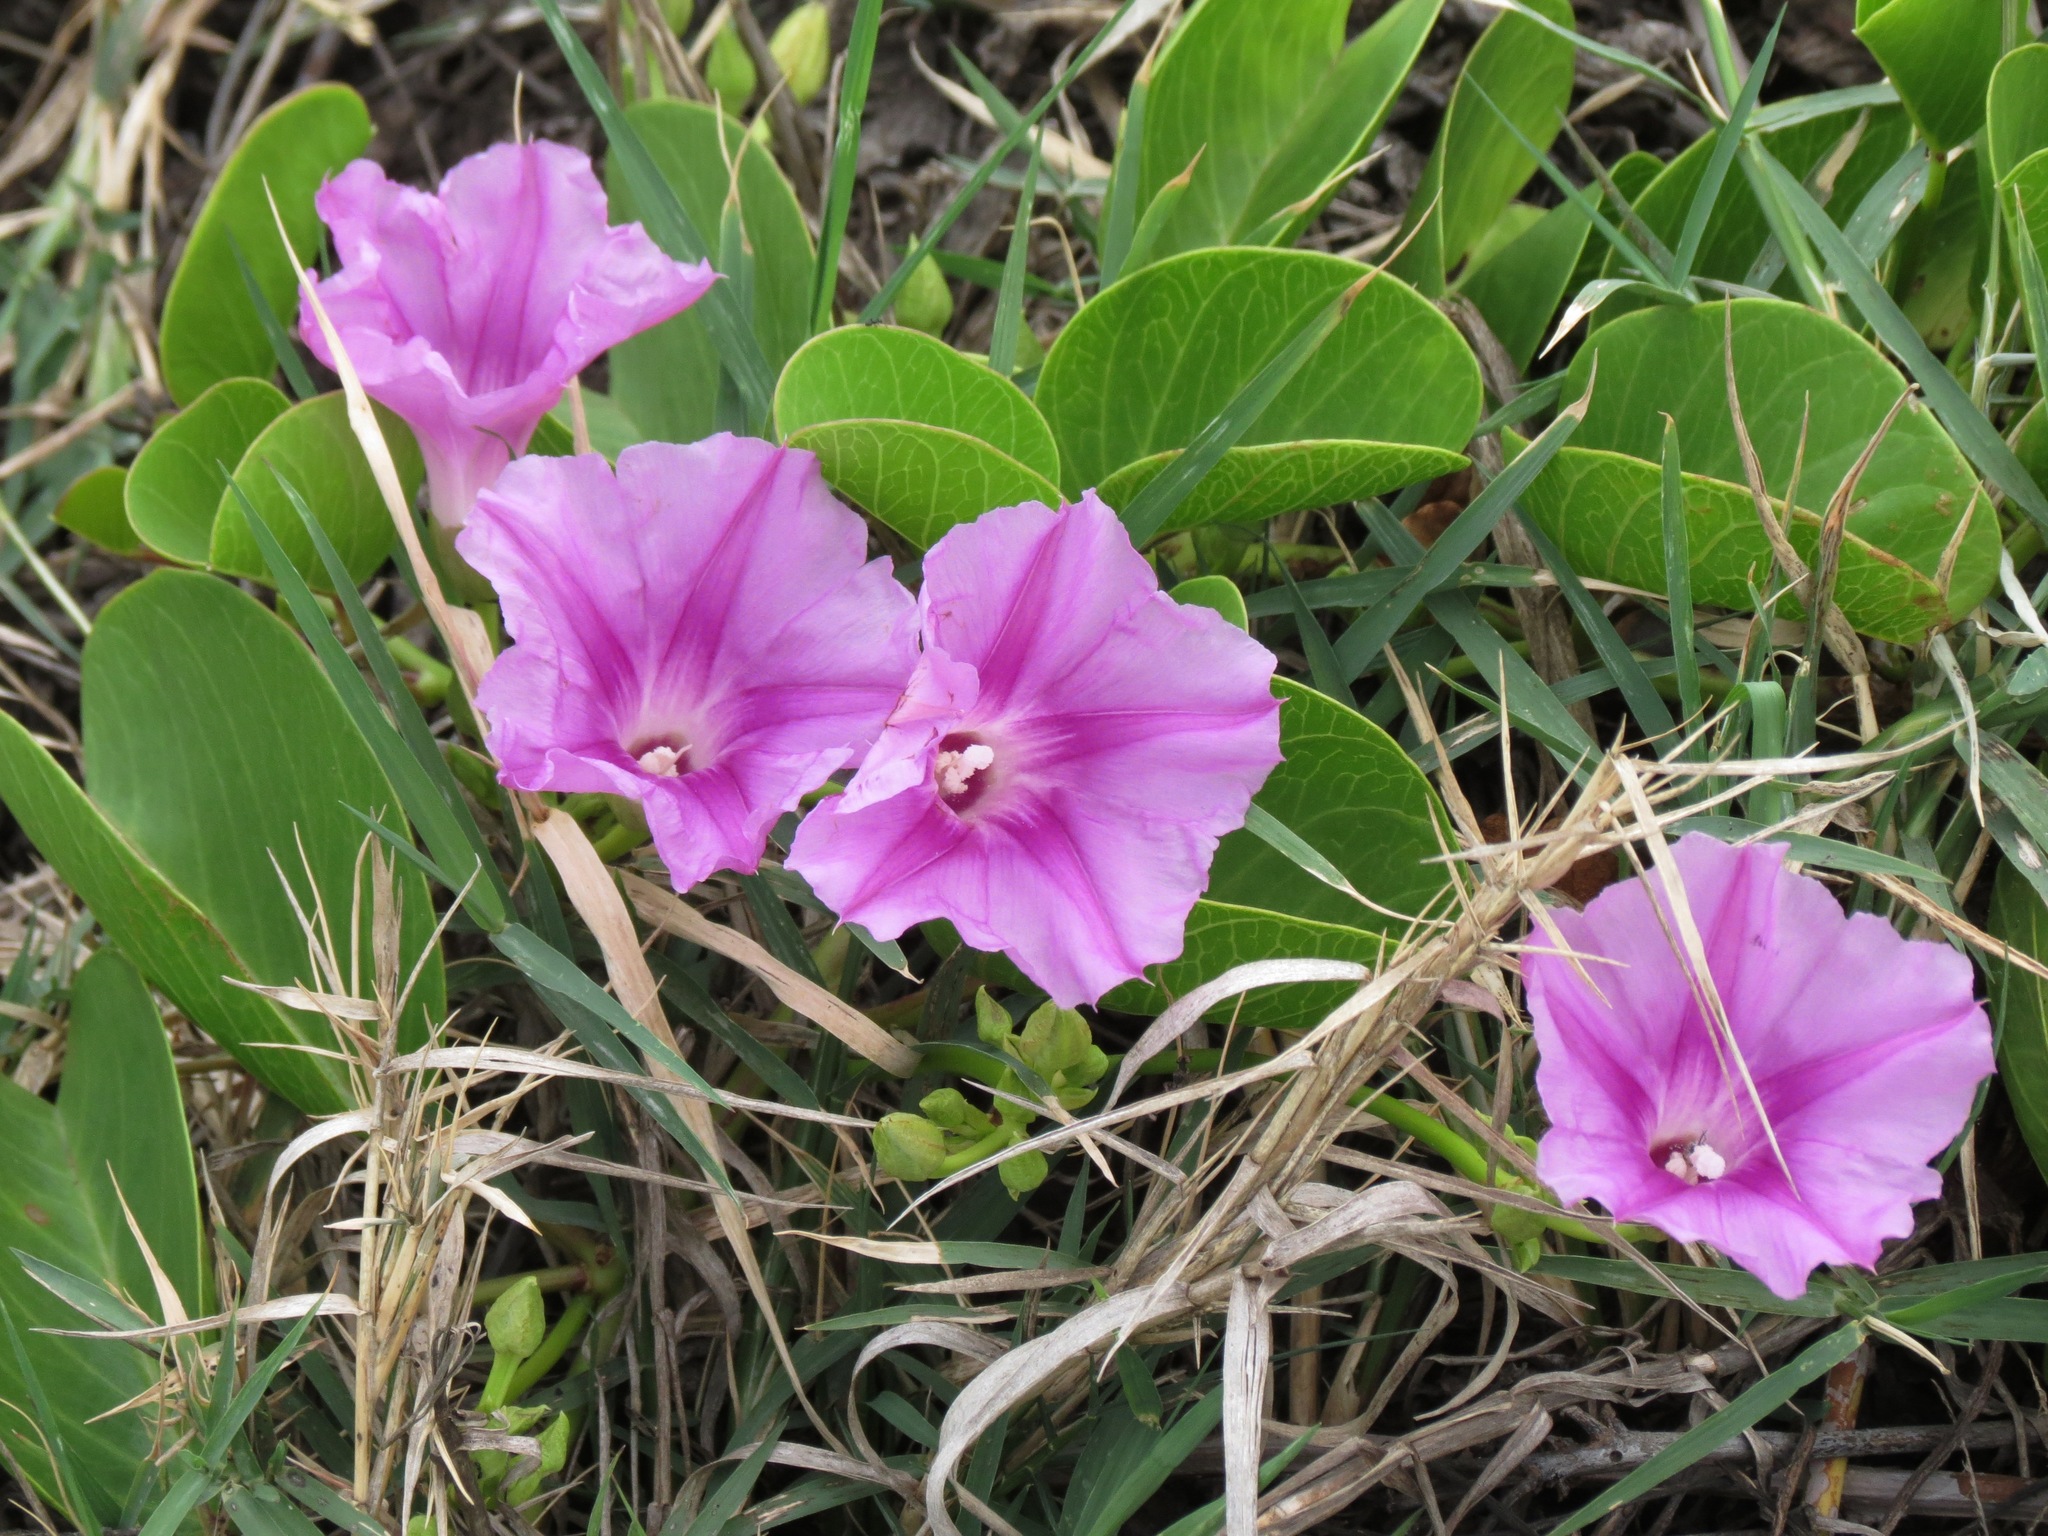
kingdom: Plantae
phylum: Tracheophyta
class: Magnoliopsida
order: Solanales
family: Convolvulaceae
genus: Ipomoea
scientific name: Ipomoea pes-caprae
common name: Beach morning glory
